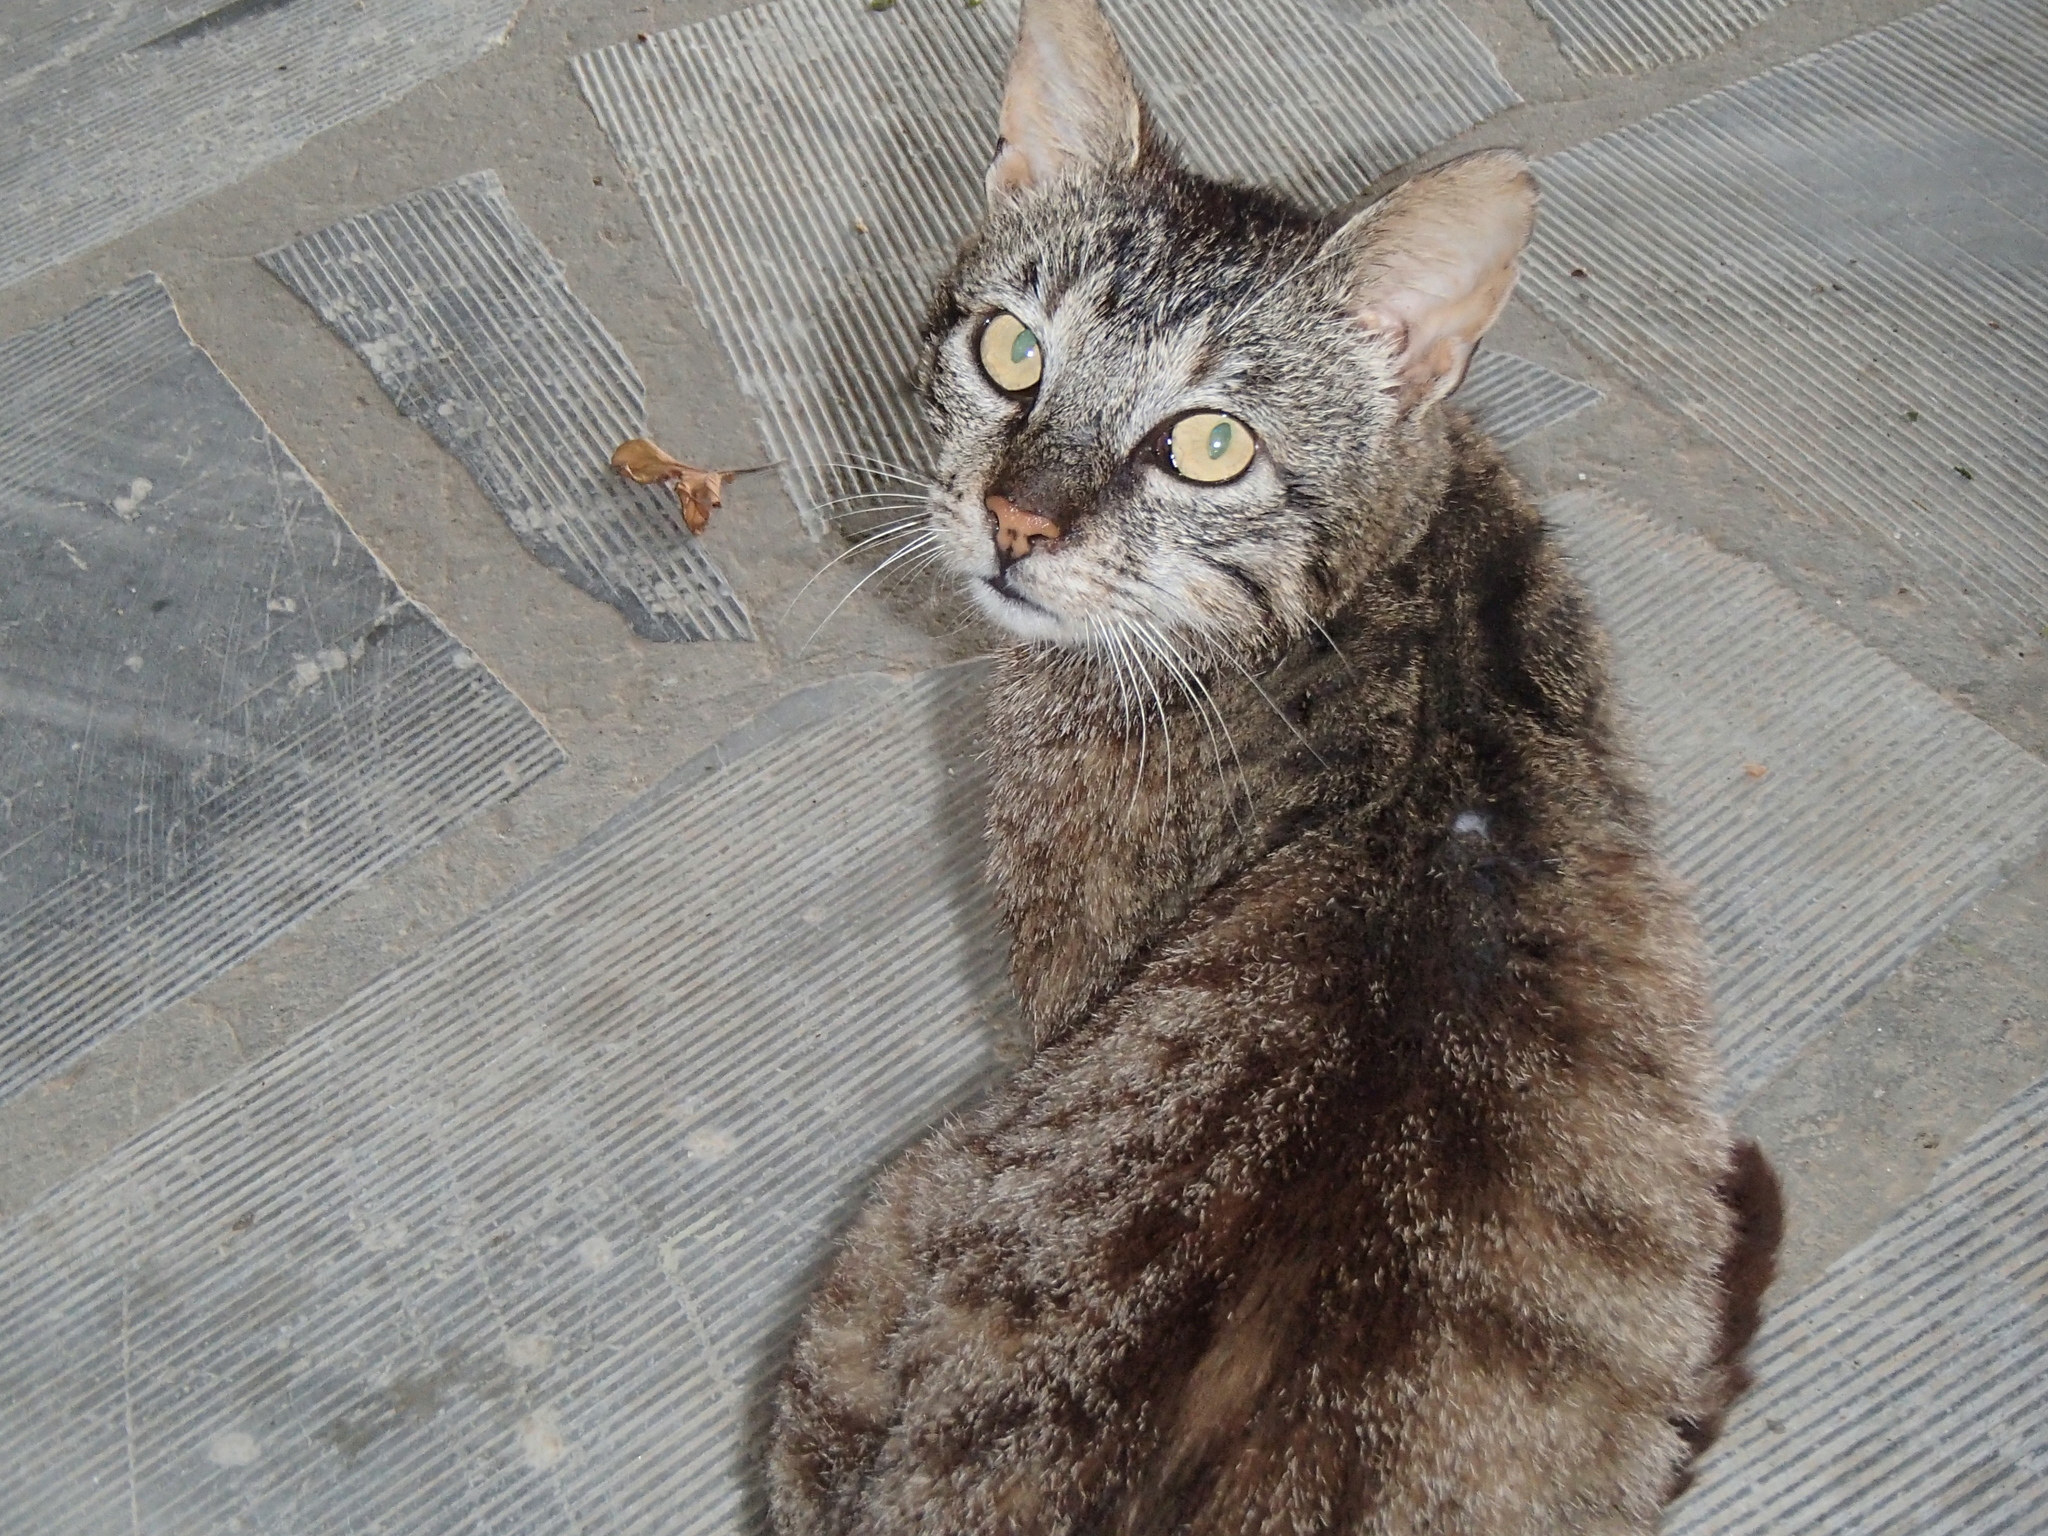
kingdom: Animalia
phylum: Chordata
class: Mammalia
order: Carnivora
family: Felidae
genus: Felis
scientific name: Felis catus
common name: Domestic cat
